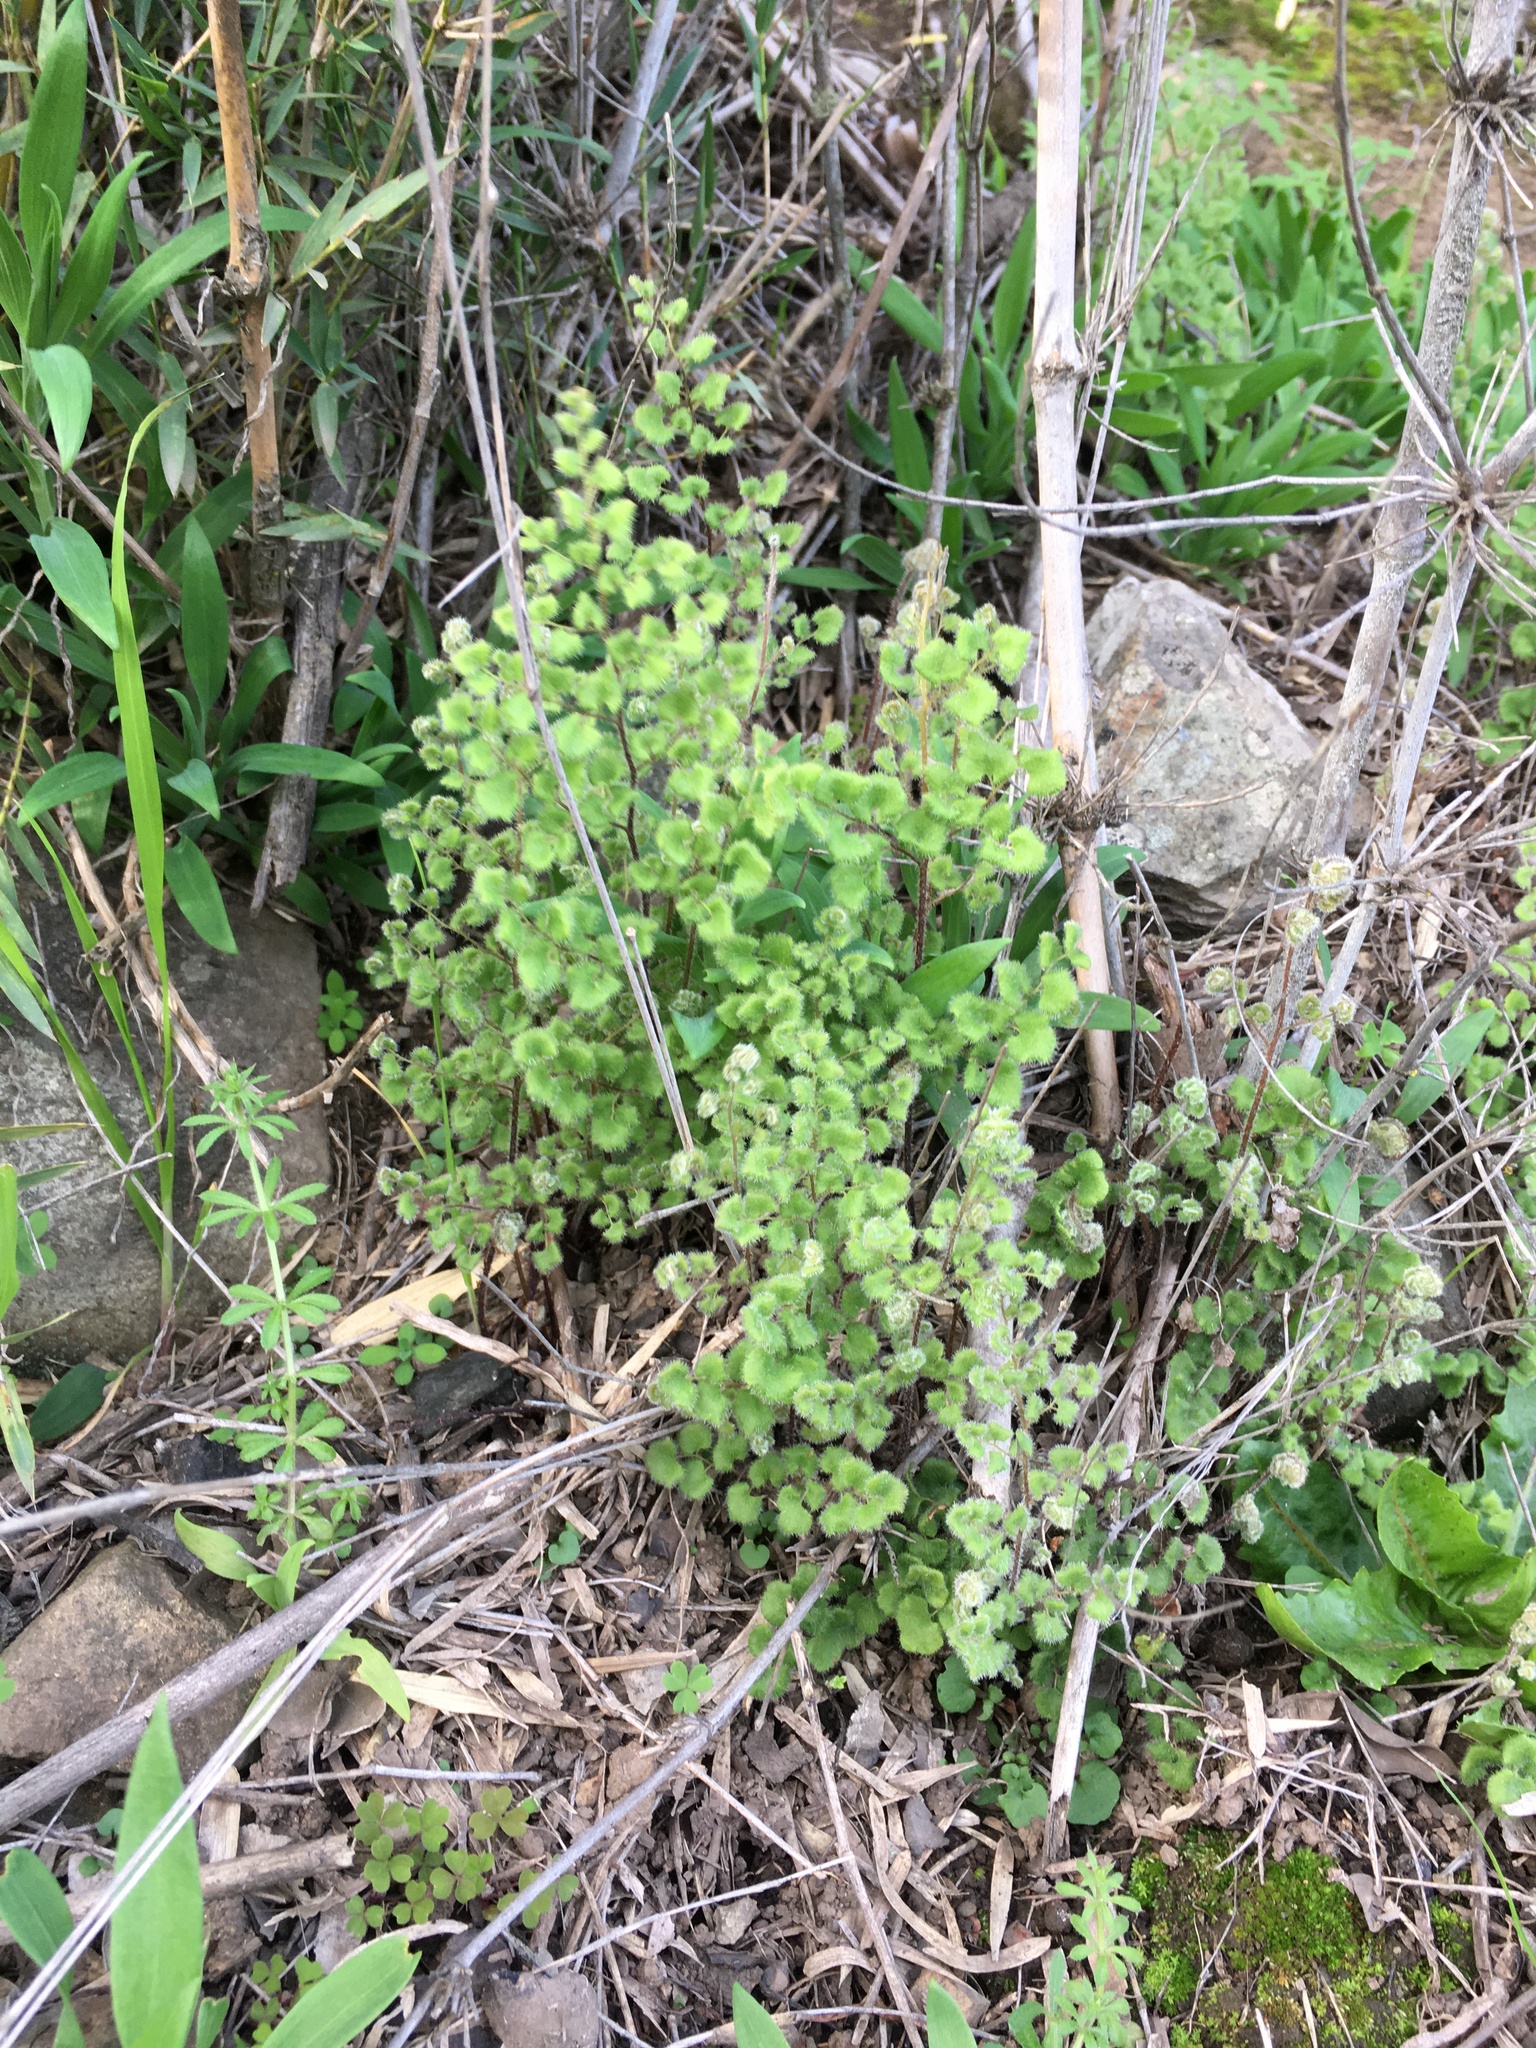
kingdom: Plantae
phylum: Tracheophyta
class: Polypodiopsida
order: Polypodiales
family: Pteridaceae
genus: Adiantum
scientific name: Adiantum chilense
